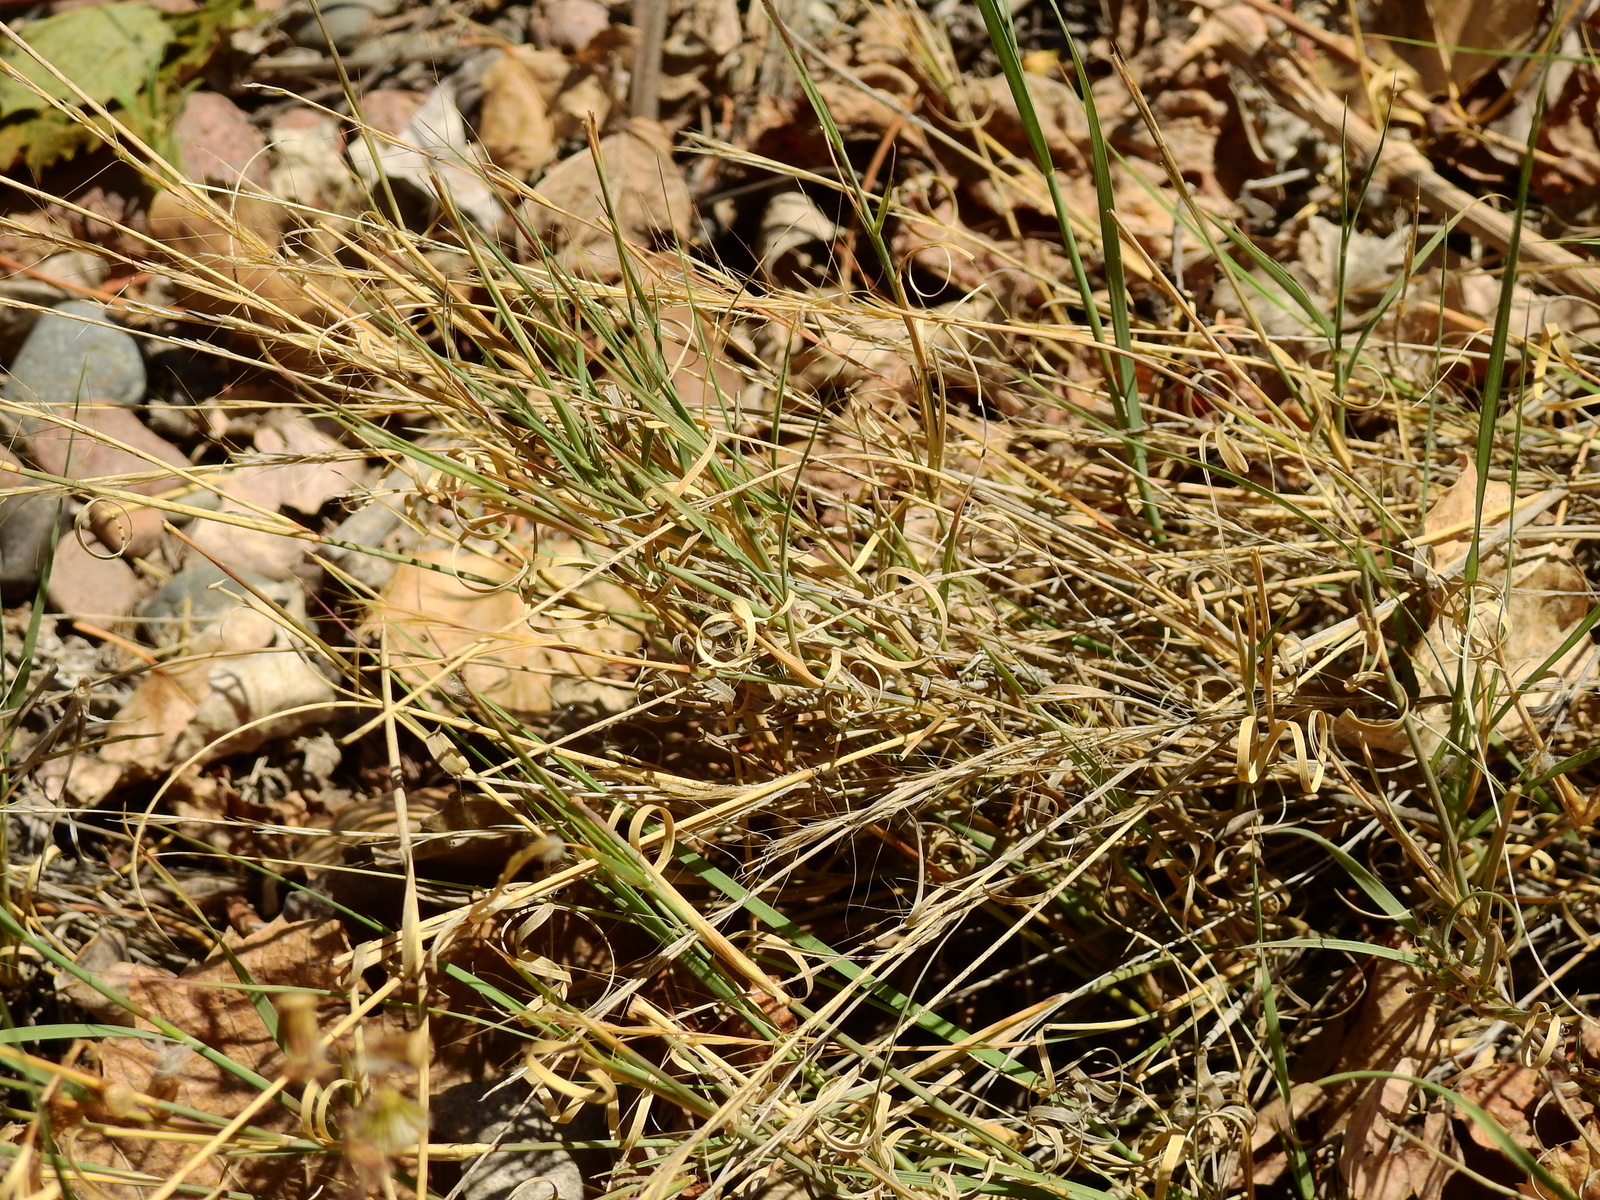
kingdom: Plantae
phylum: Tracheophyta
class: Liliopsida
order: Poales
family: Poaceae
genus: Aristida
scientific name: Aristida mendocina
